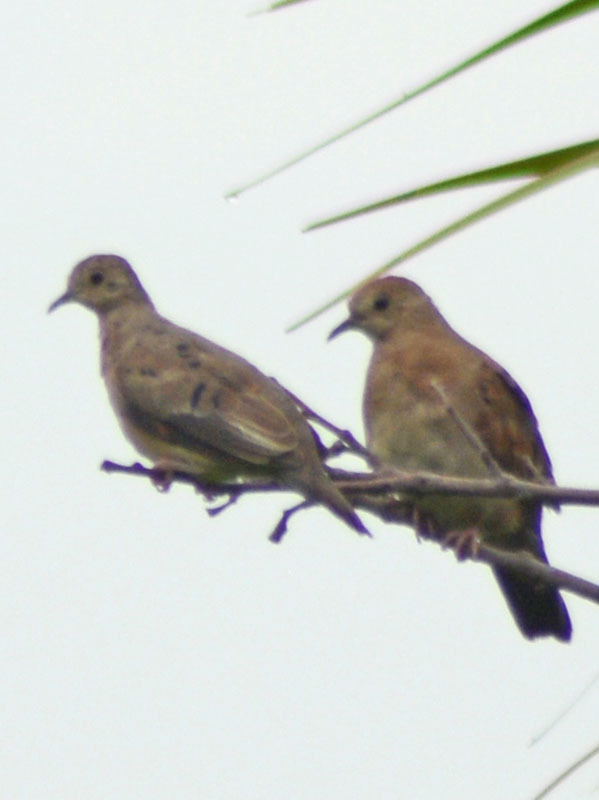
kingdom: Animalia
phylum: Chordata
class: Aves
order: Columbiformes
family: Columbidae
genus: Columbina
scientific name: Columbina talpacoti
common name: Ruddy ground dove
